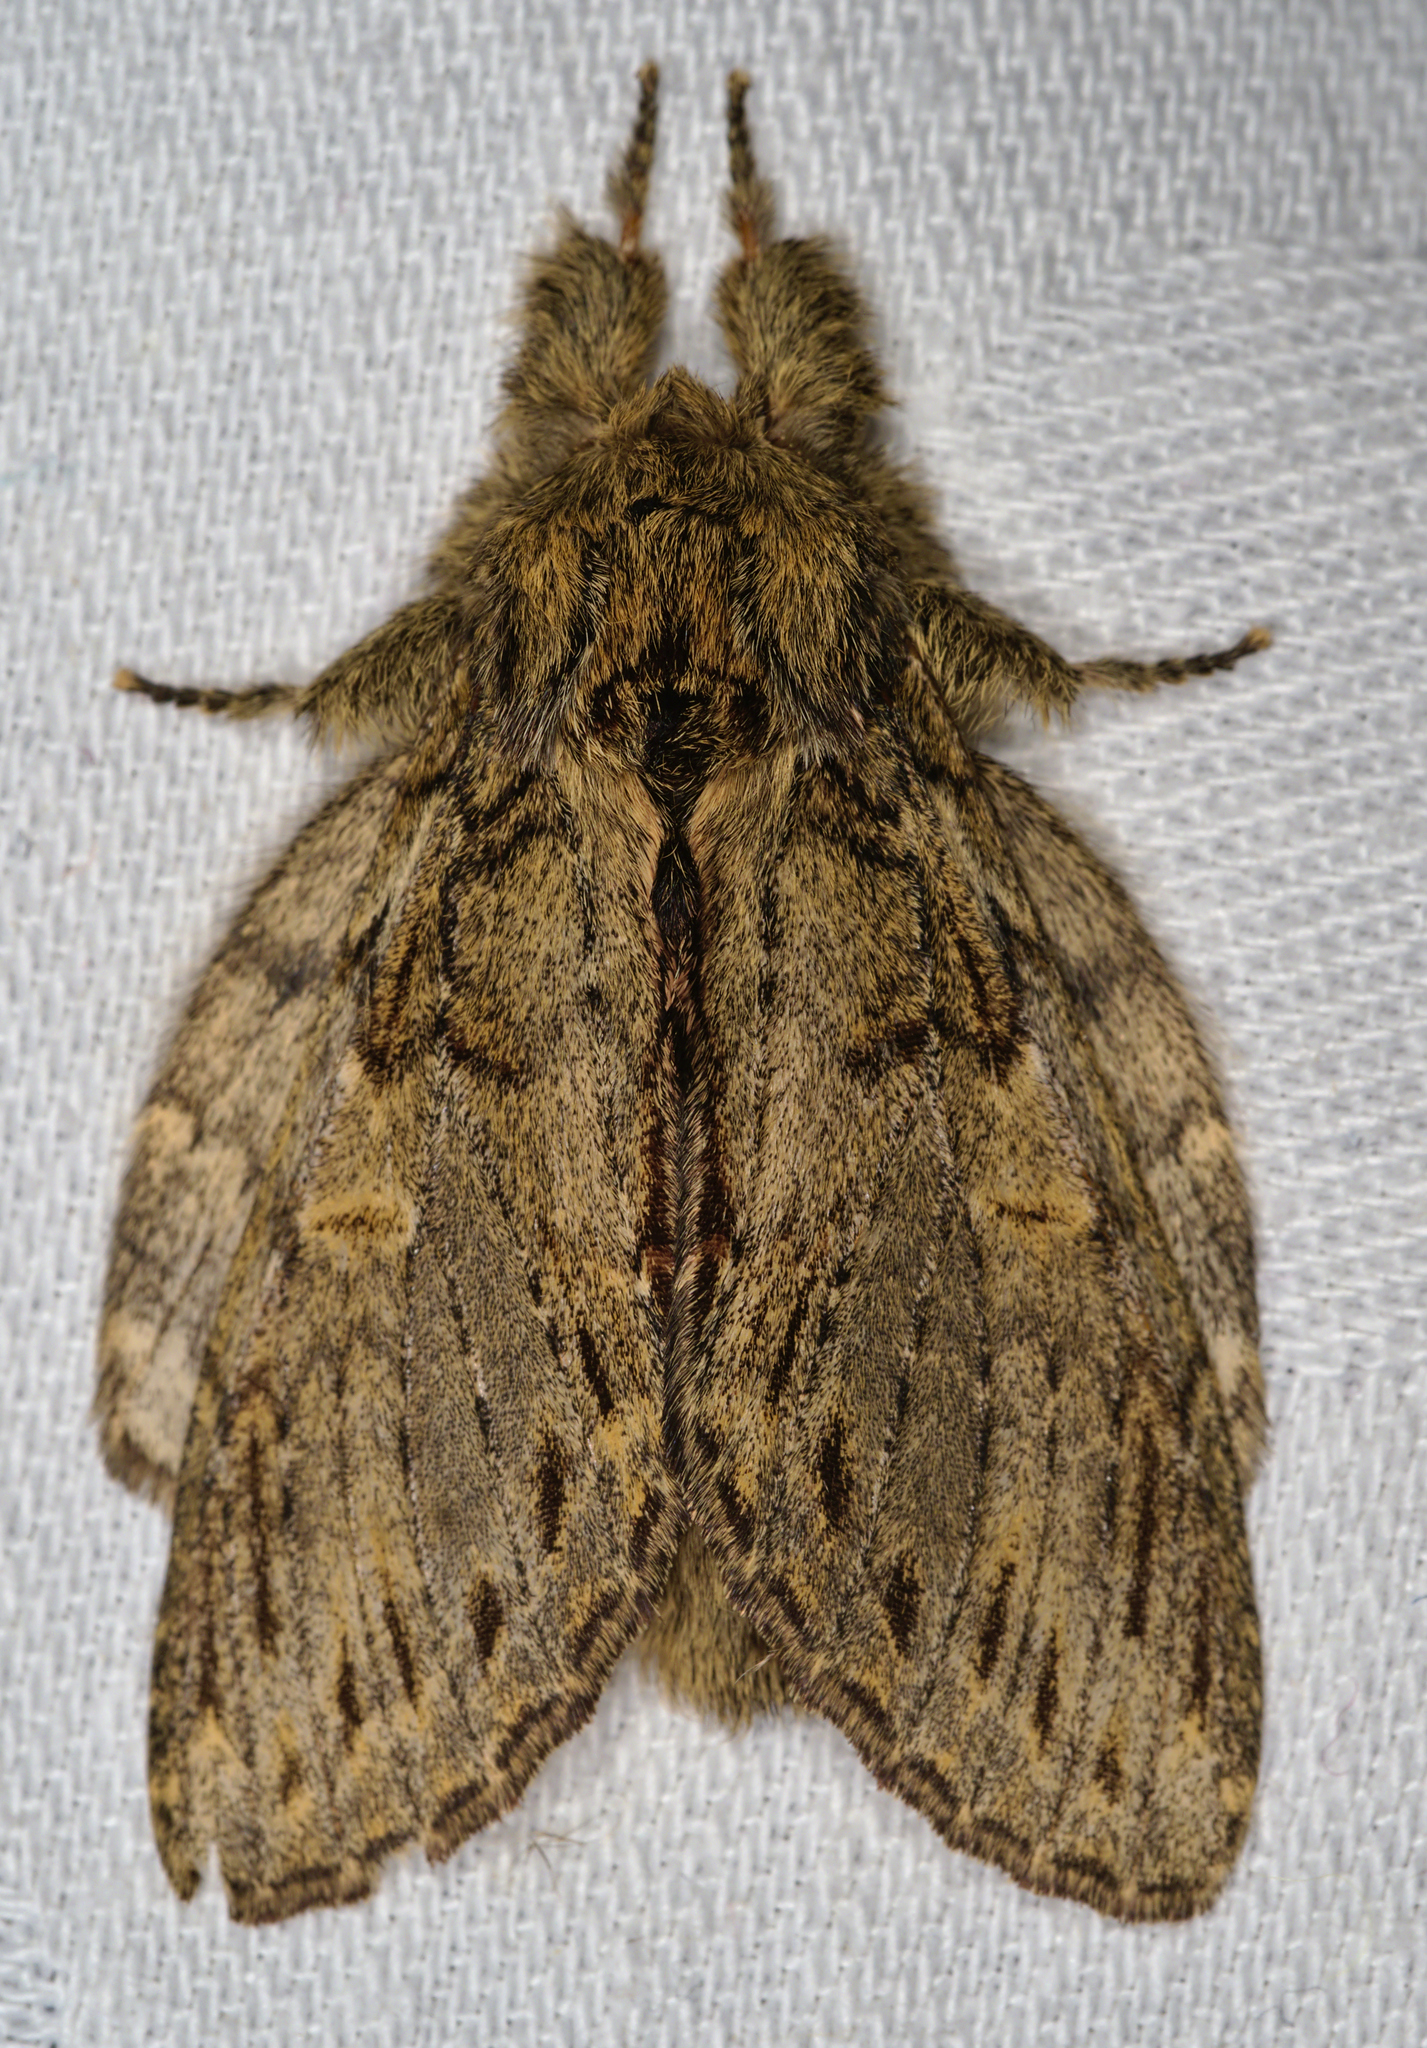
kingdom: Animalia
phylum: Arthropoda
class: Insecta
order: Lepidoptera
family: Notodontidae
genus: Peridea
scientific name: Peridea anceps
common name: Great prominent
